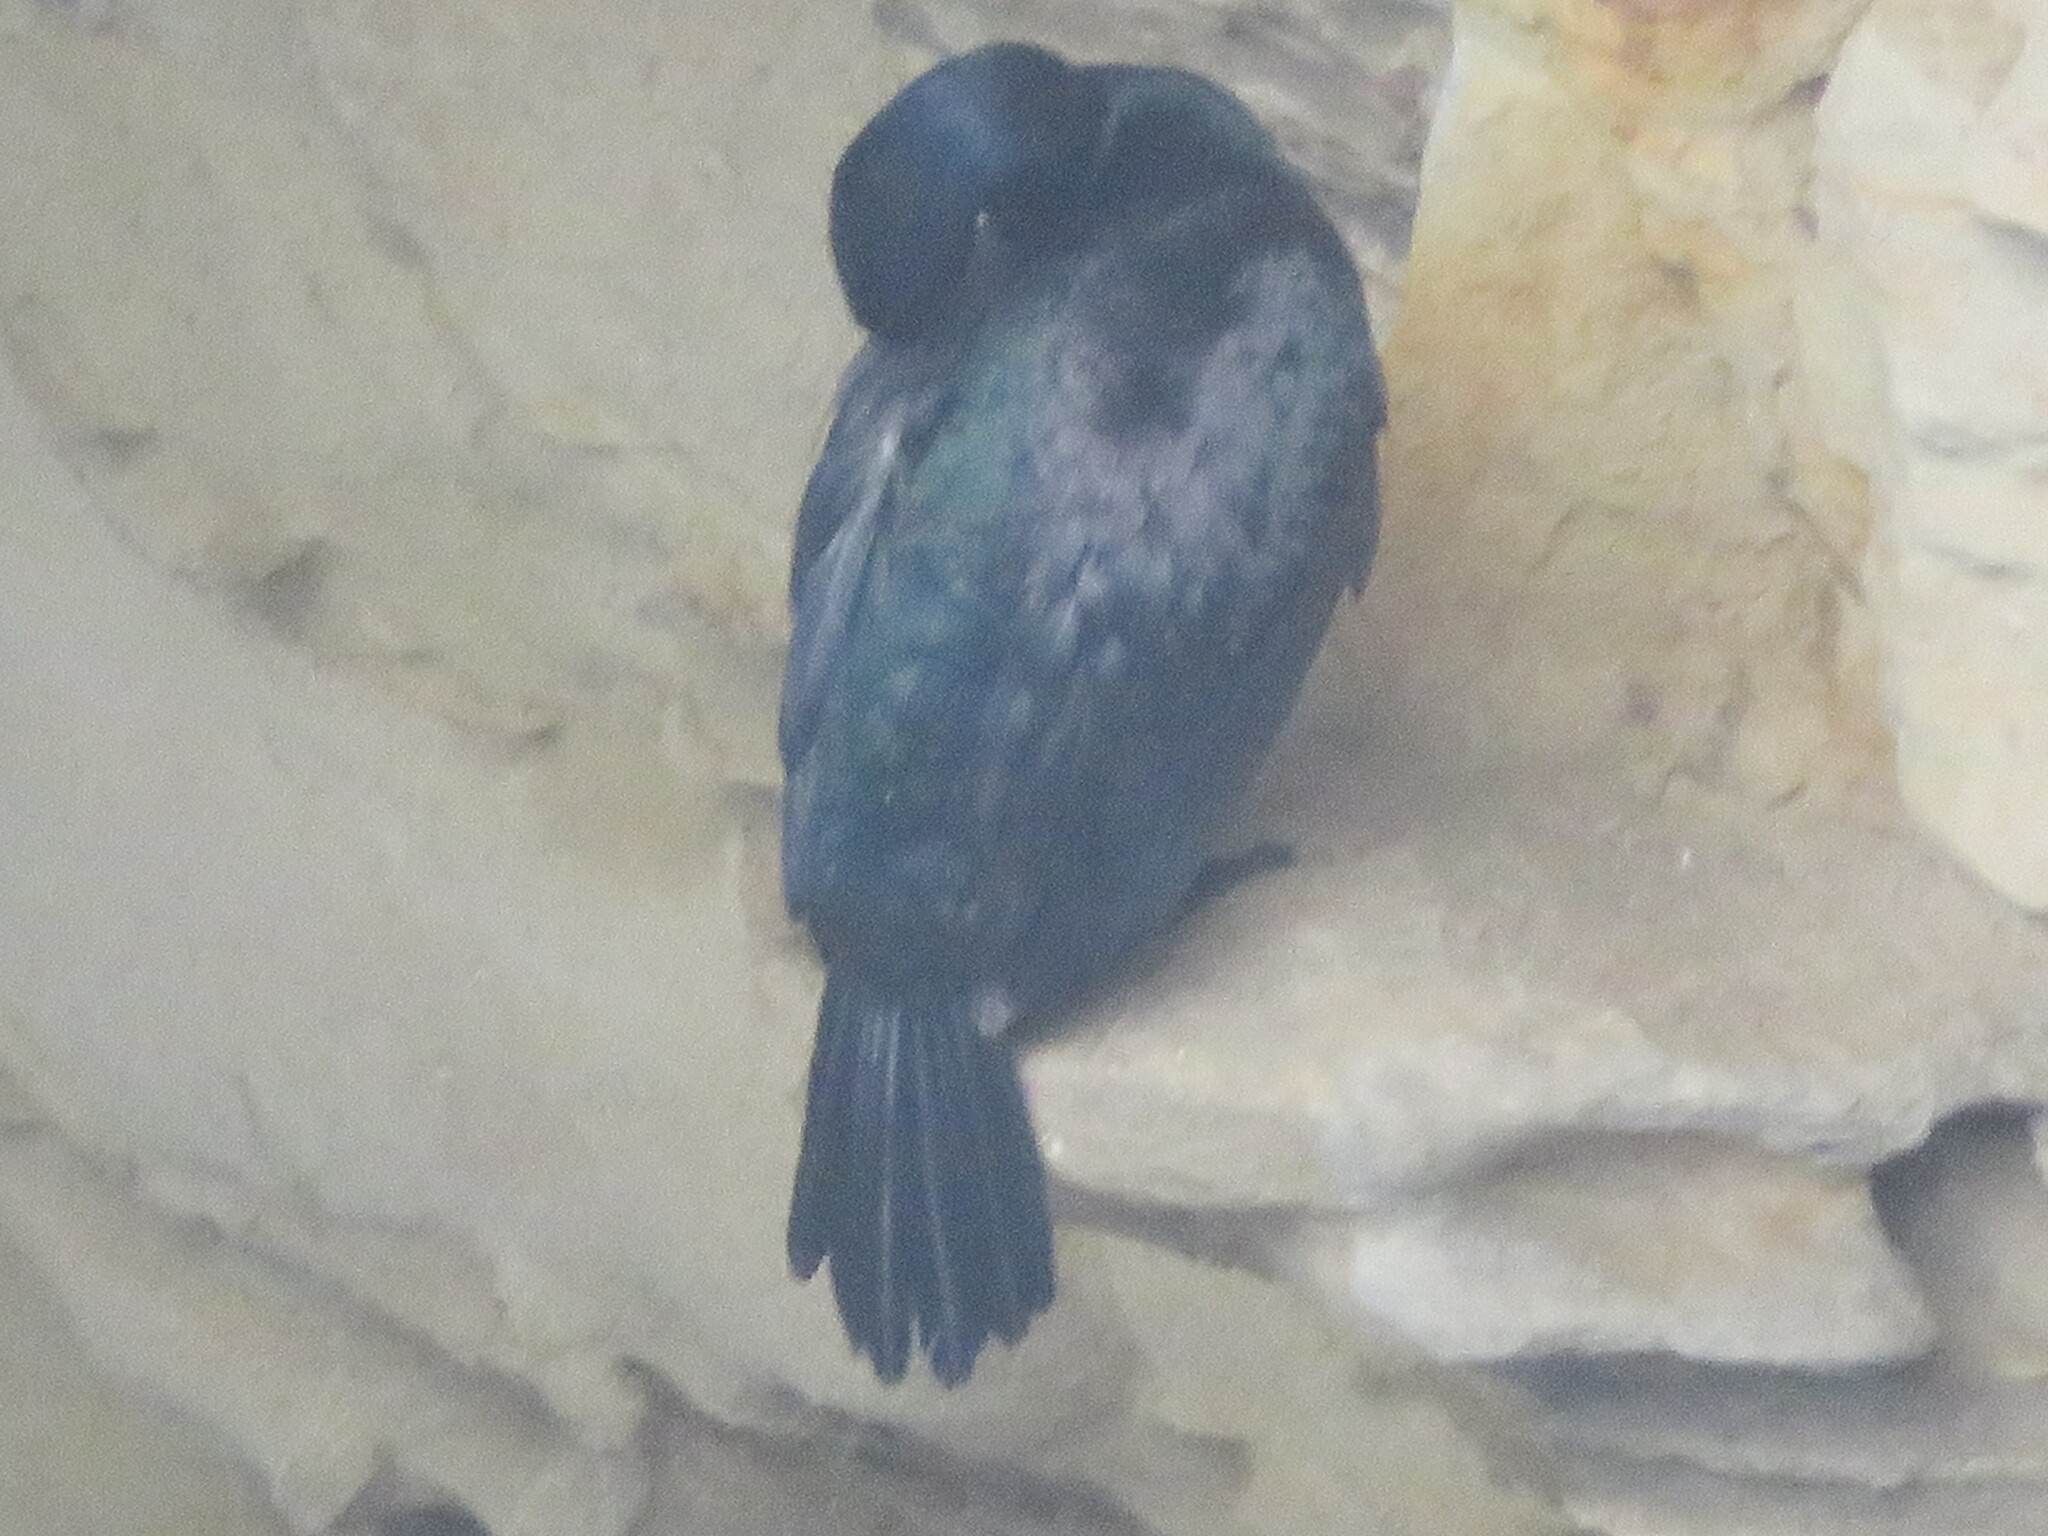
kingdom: Animalia
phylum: Chordata
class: Aves
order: Suliformes
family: Phalacrocoracidae
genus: Phalacrocorax
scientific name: Phalacrocorax pelagicus
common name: Pelagic cormorant
